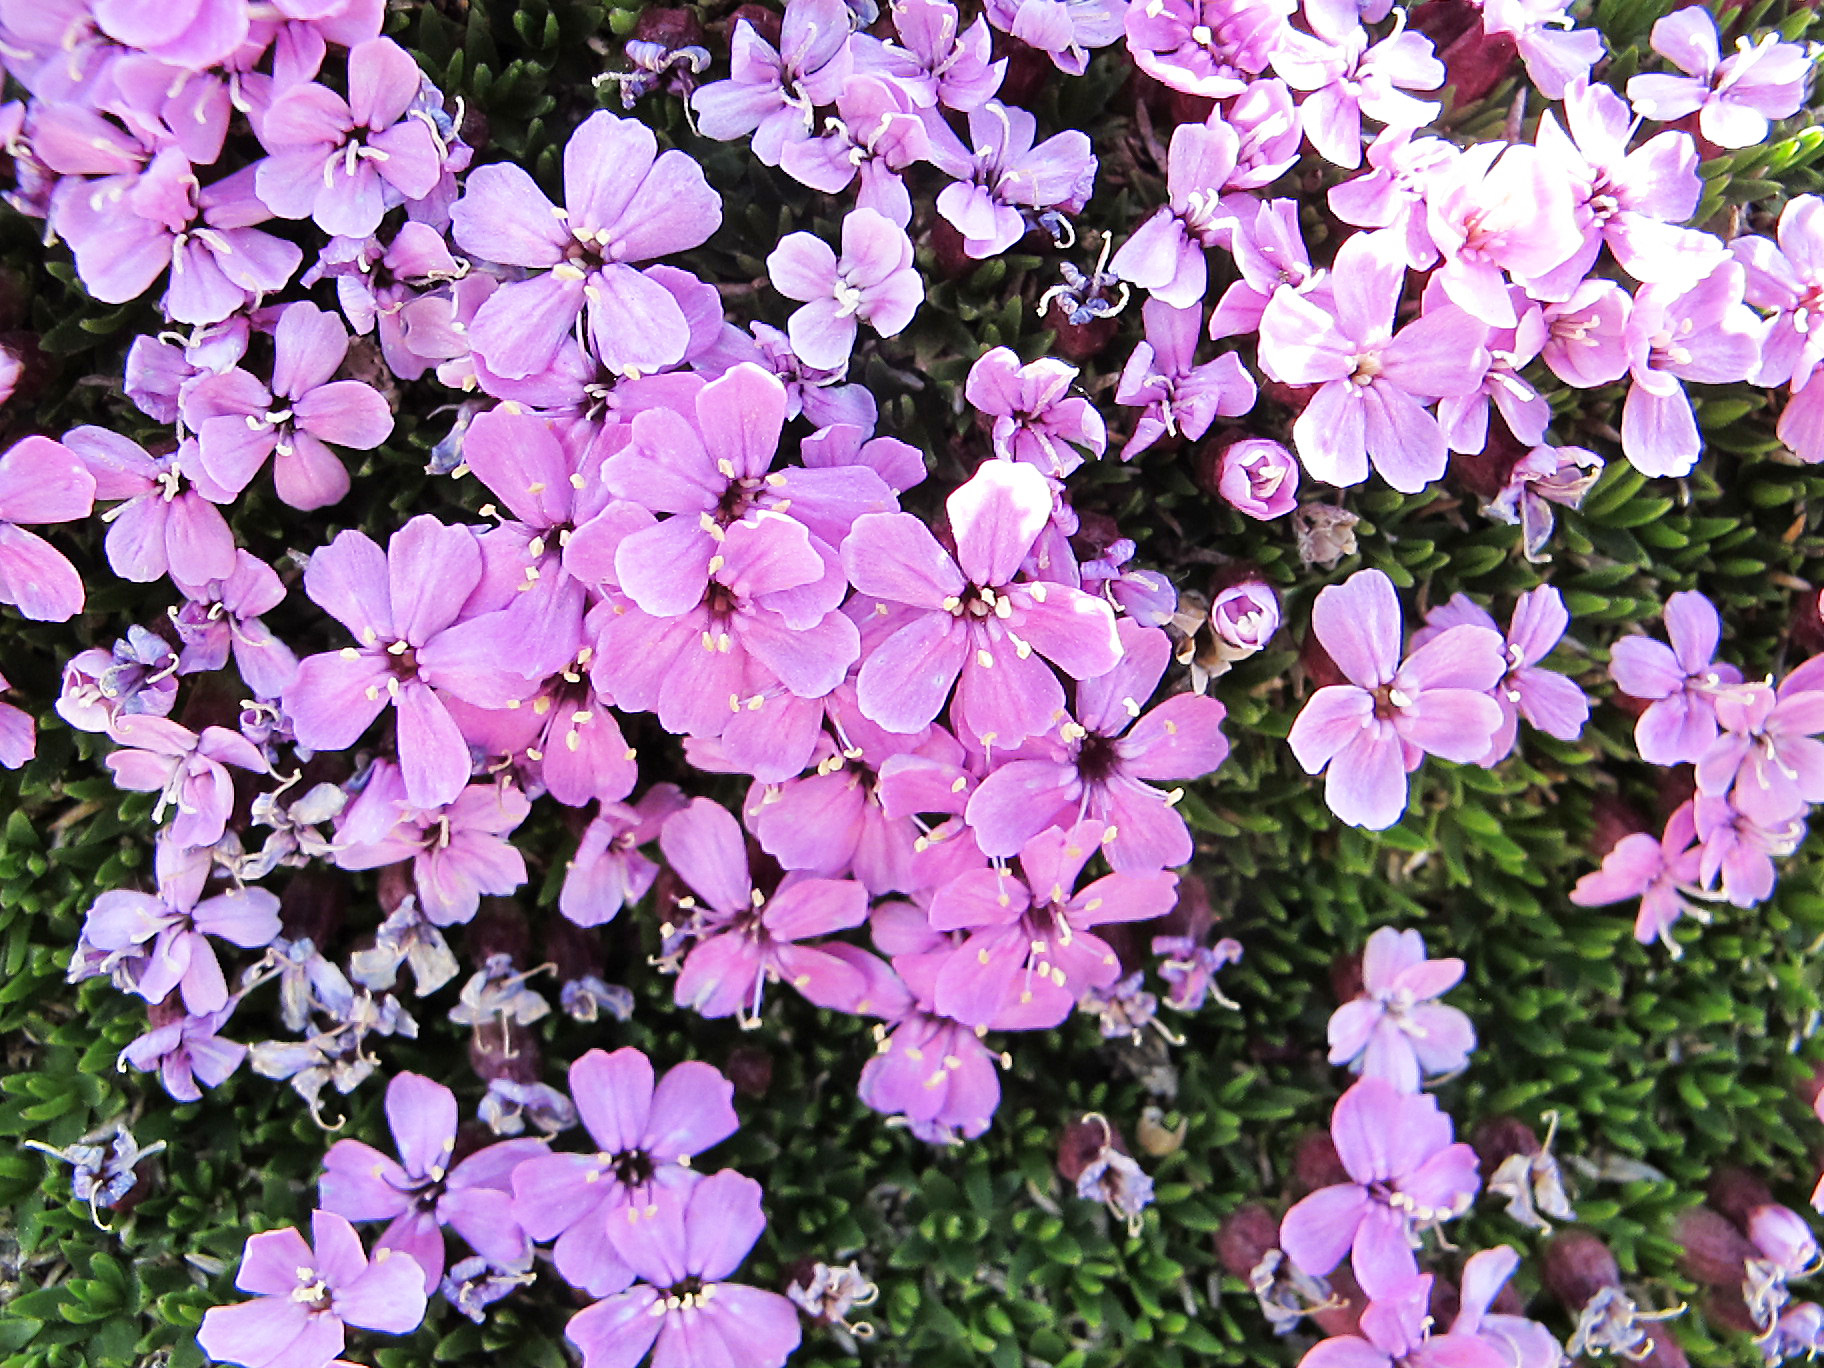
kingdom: Plantae
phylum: Tracheophyta
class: Magnoliopsida
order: Caryophyllales
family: Caryophyllaceae
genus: Silene
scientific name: Silene acaulis
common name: Moss campion
